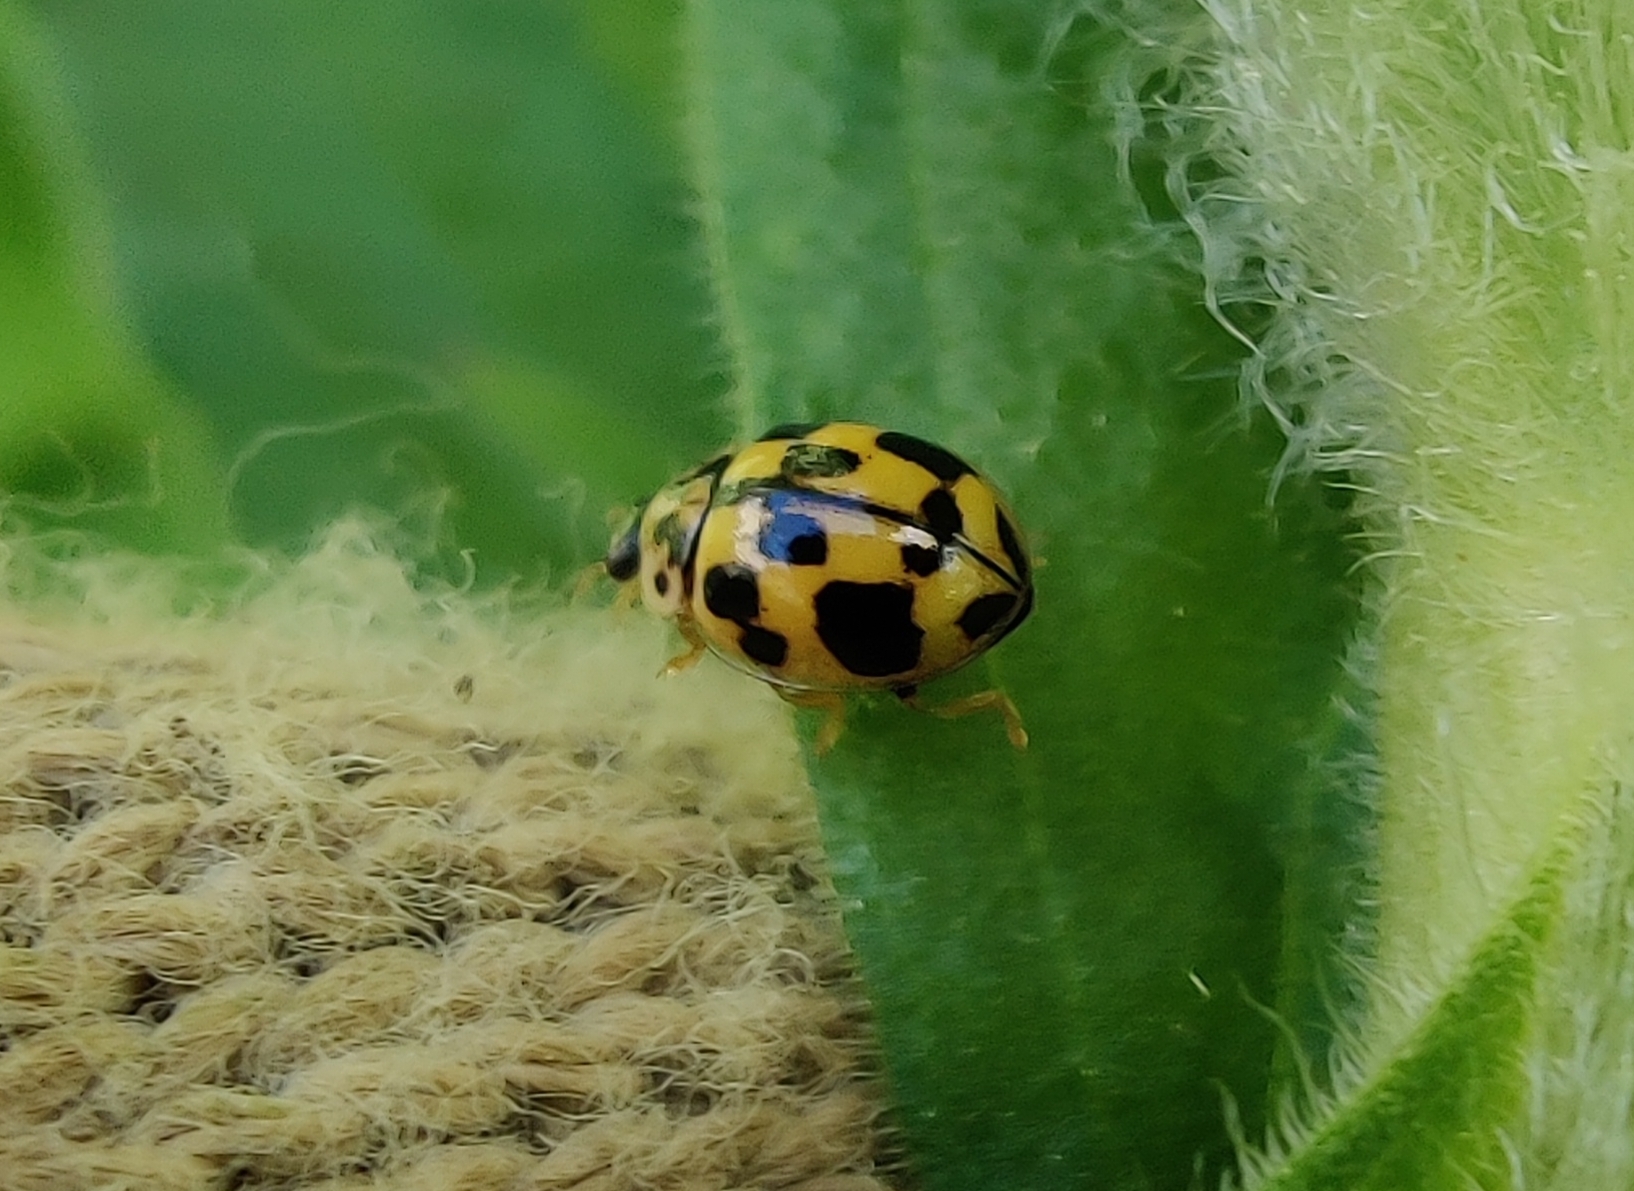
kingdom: Animalia
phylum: Arthropoda
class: Insecta
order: Coleoptera
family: Coccinellidae
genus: Propylaea
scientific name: Propylaea quatuordecimpunctata
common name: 14-spotted ladybird beetle
